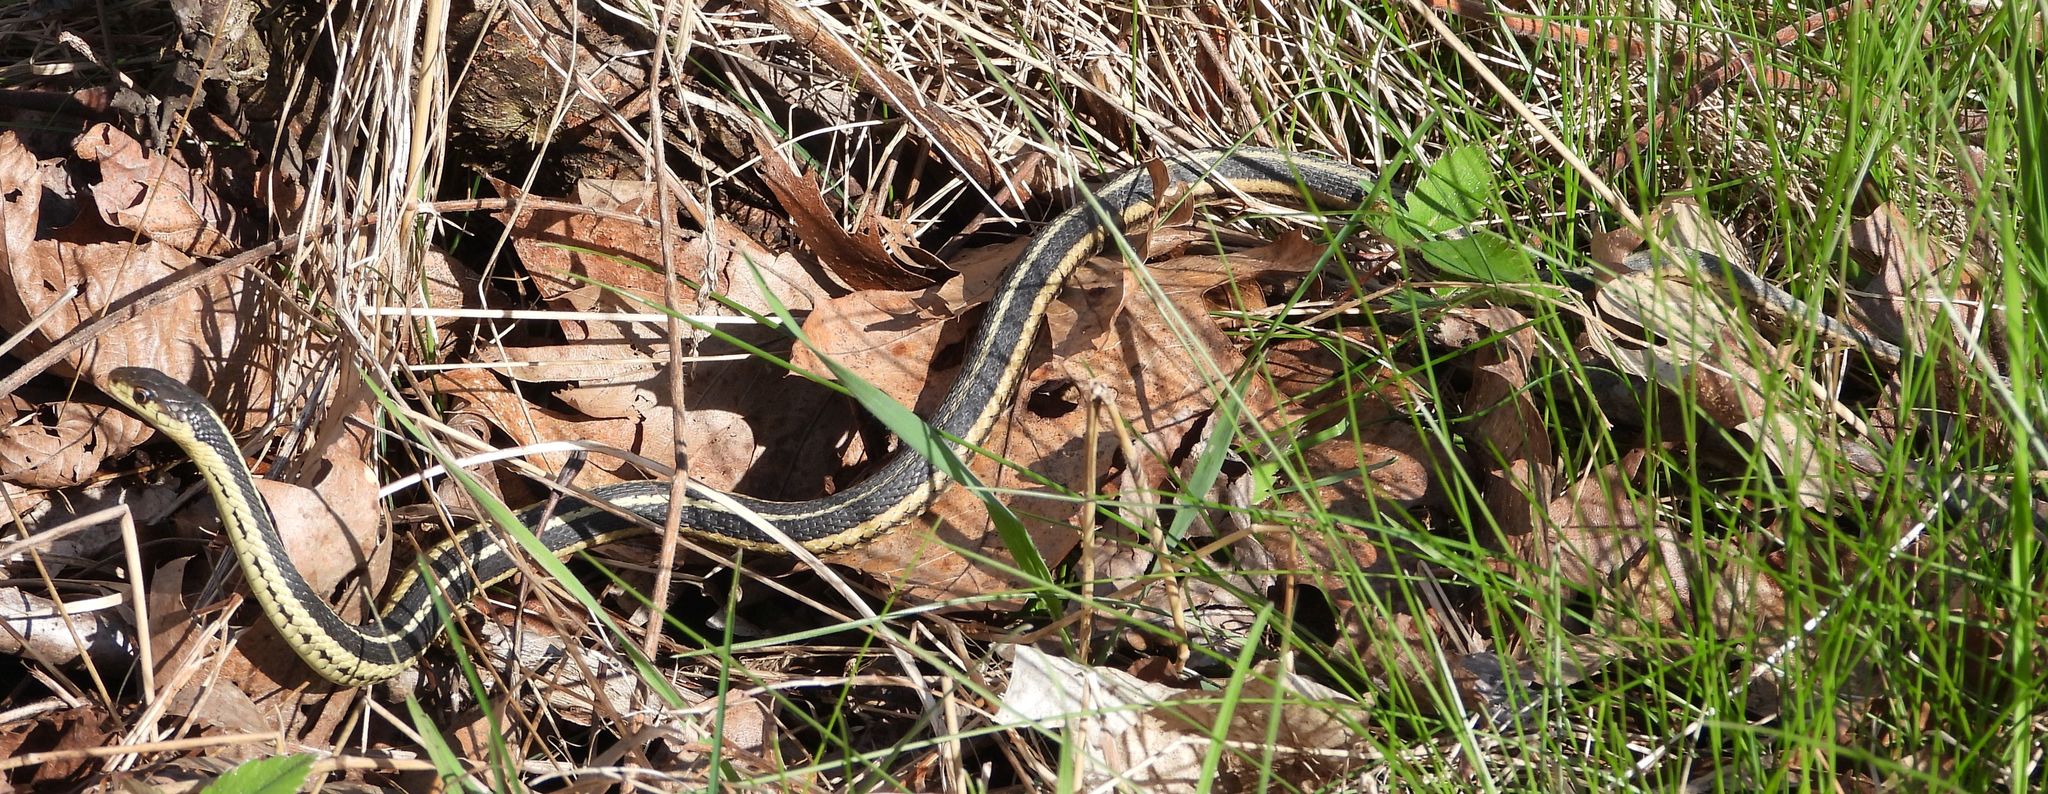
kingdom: Animalia
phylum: Chordata
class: Squamata
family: Colubridae
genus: Thamnophis
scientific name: Thamnophis sirtalis
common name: Common garter snake
